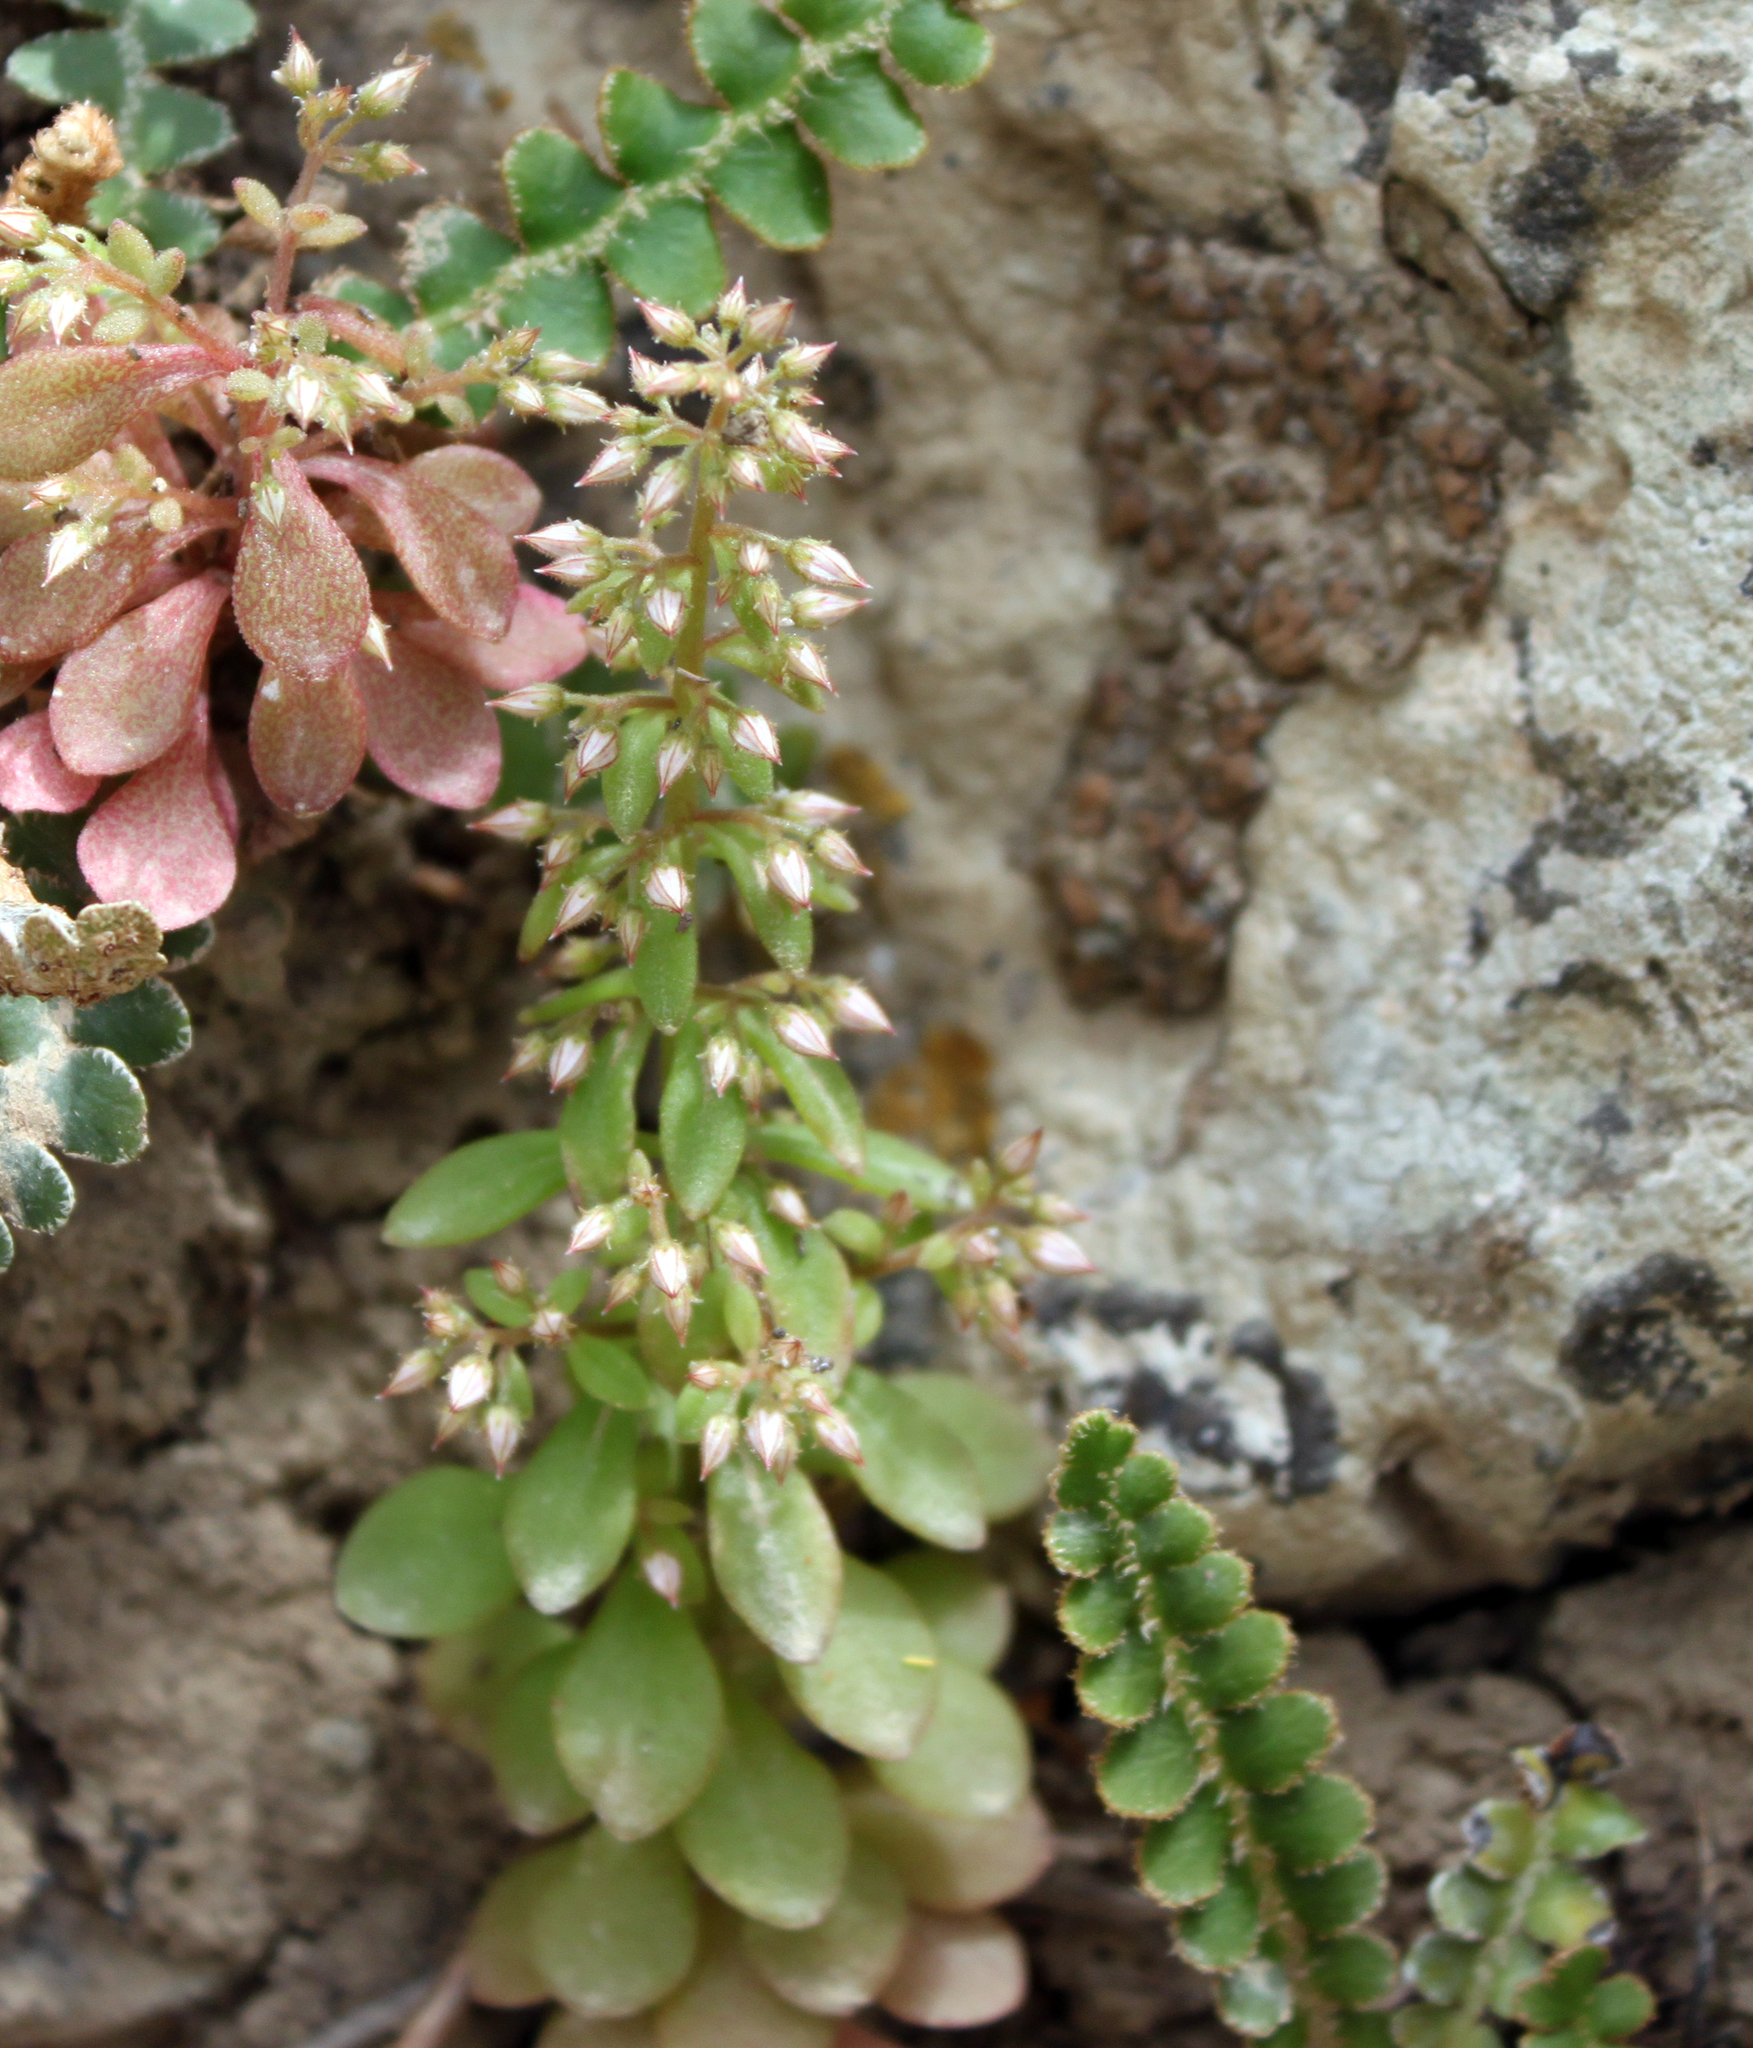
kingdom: Plantae
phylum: Tracheophyta
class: Magnoliopsida
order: Saxifragales
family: Crassulaceae
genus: Sedum
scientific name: Sedum cepaea
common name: Pink stonecrop
